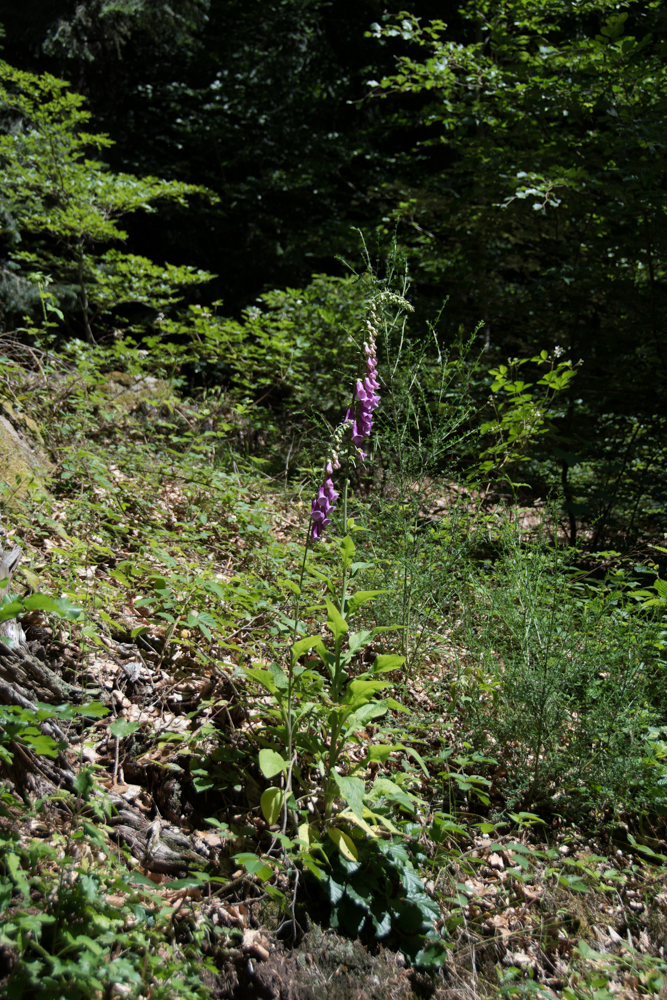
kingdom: Plantae
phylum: Tracheophyta
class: Magnoliopsida
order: Lamiales
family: Plantaginaceae
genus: Digitalis
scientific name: Digitalis purpurea
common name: Foxglove
